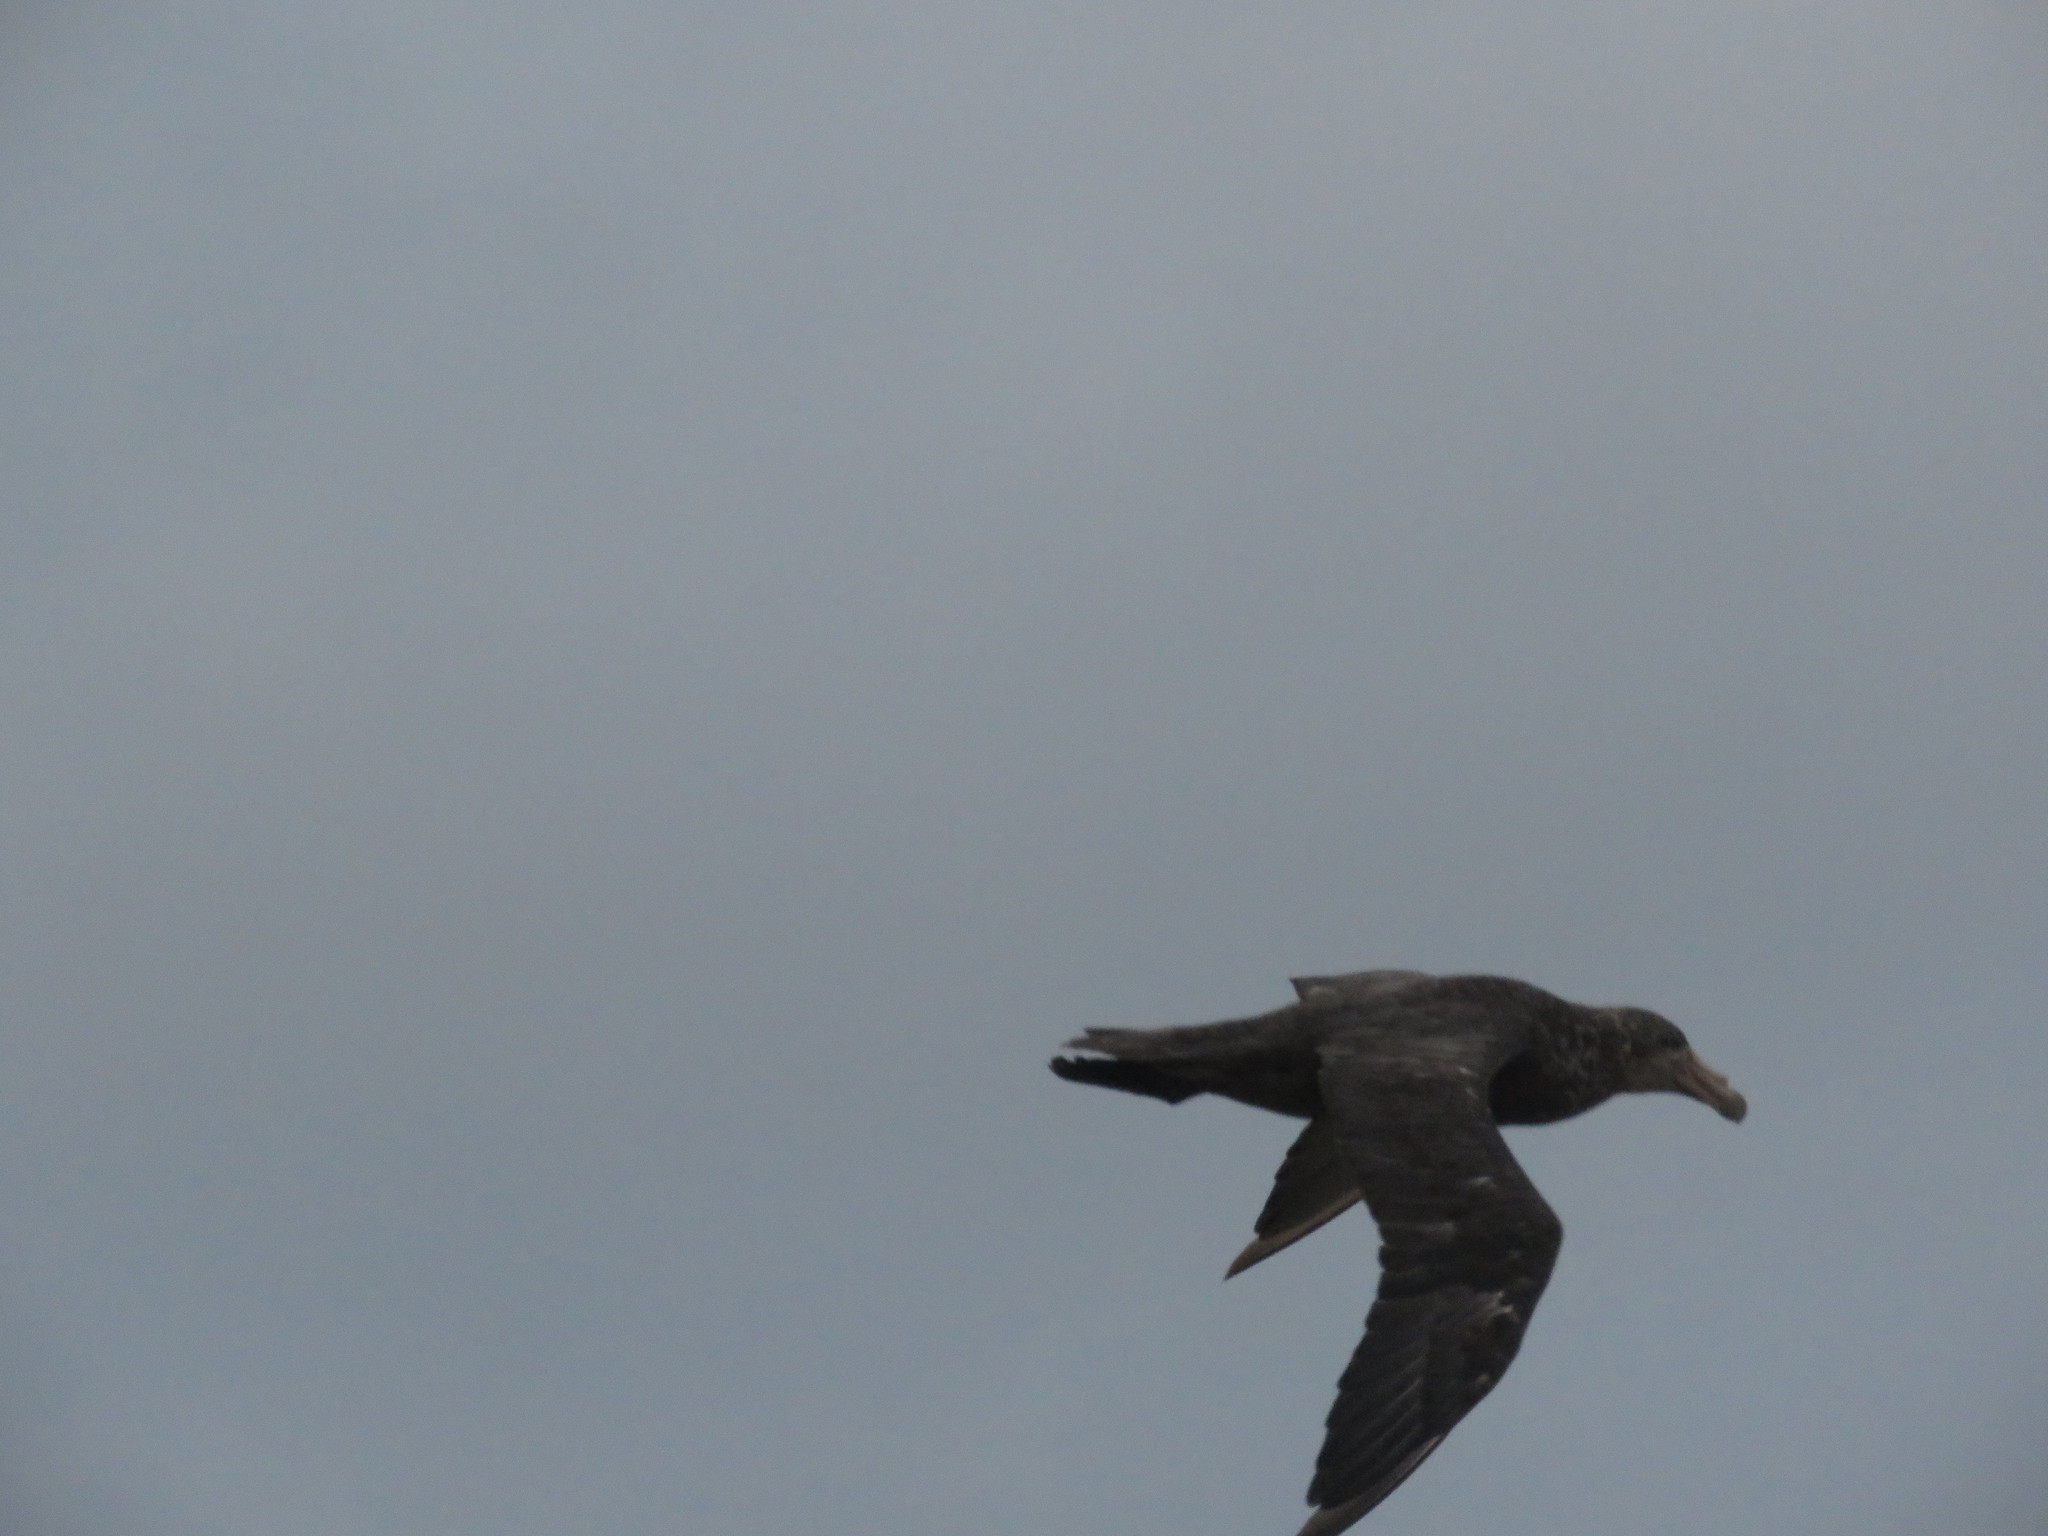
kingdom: Animalia
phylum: Chordata
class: Aves
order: Procellariiformes
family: Procellariidae
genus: Macronectes
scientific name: Macronectes giganteus
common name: Southern giant petrel
